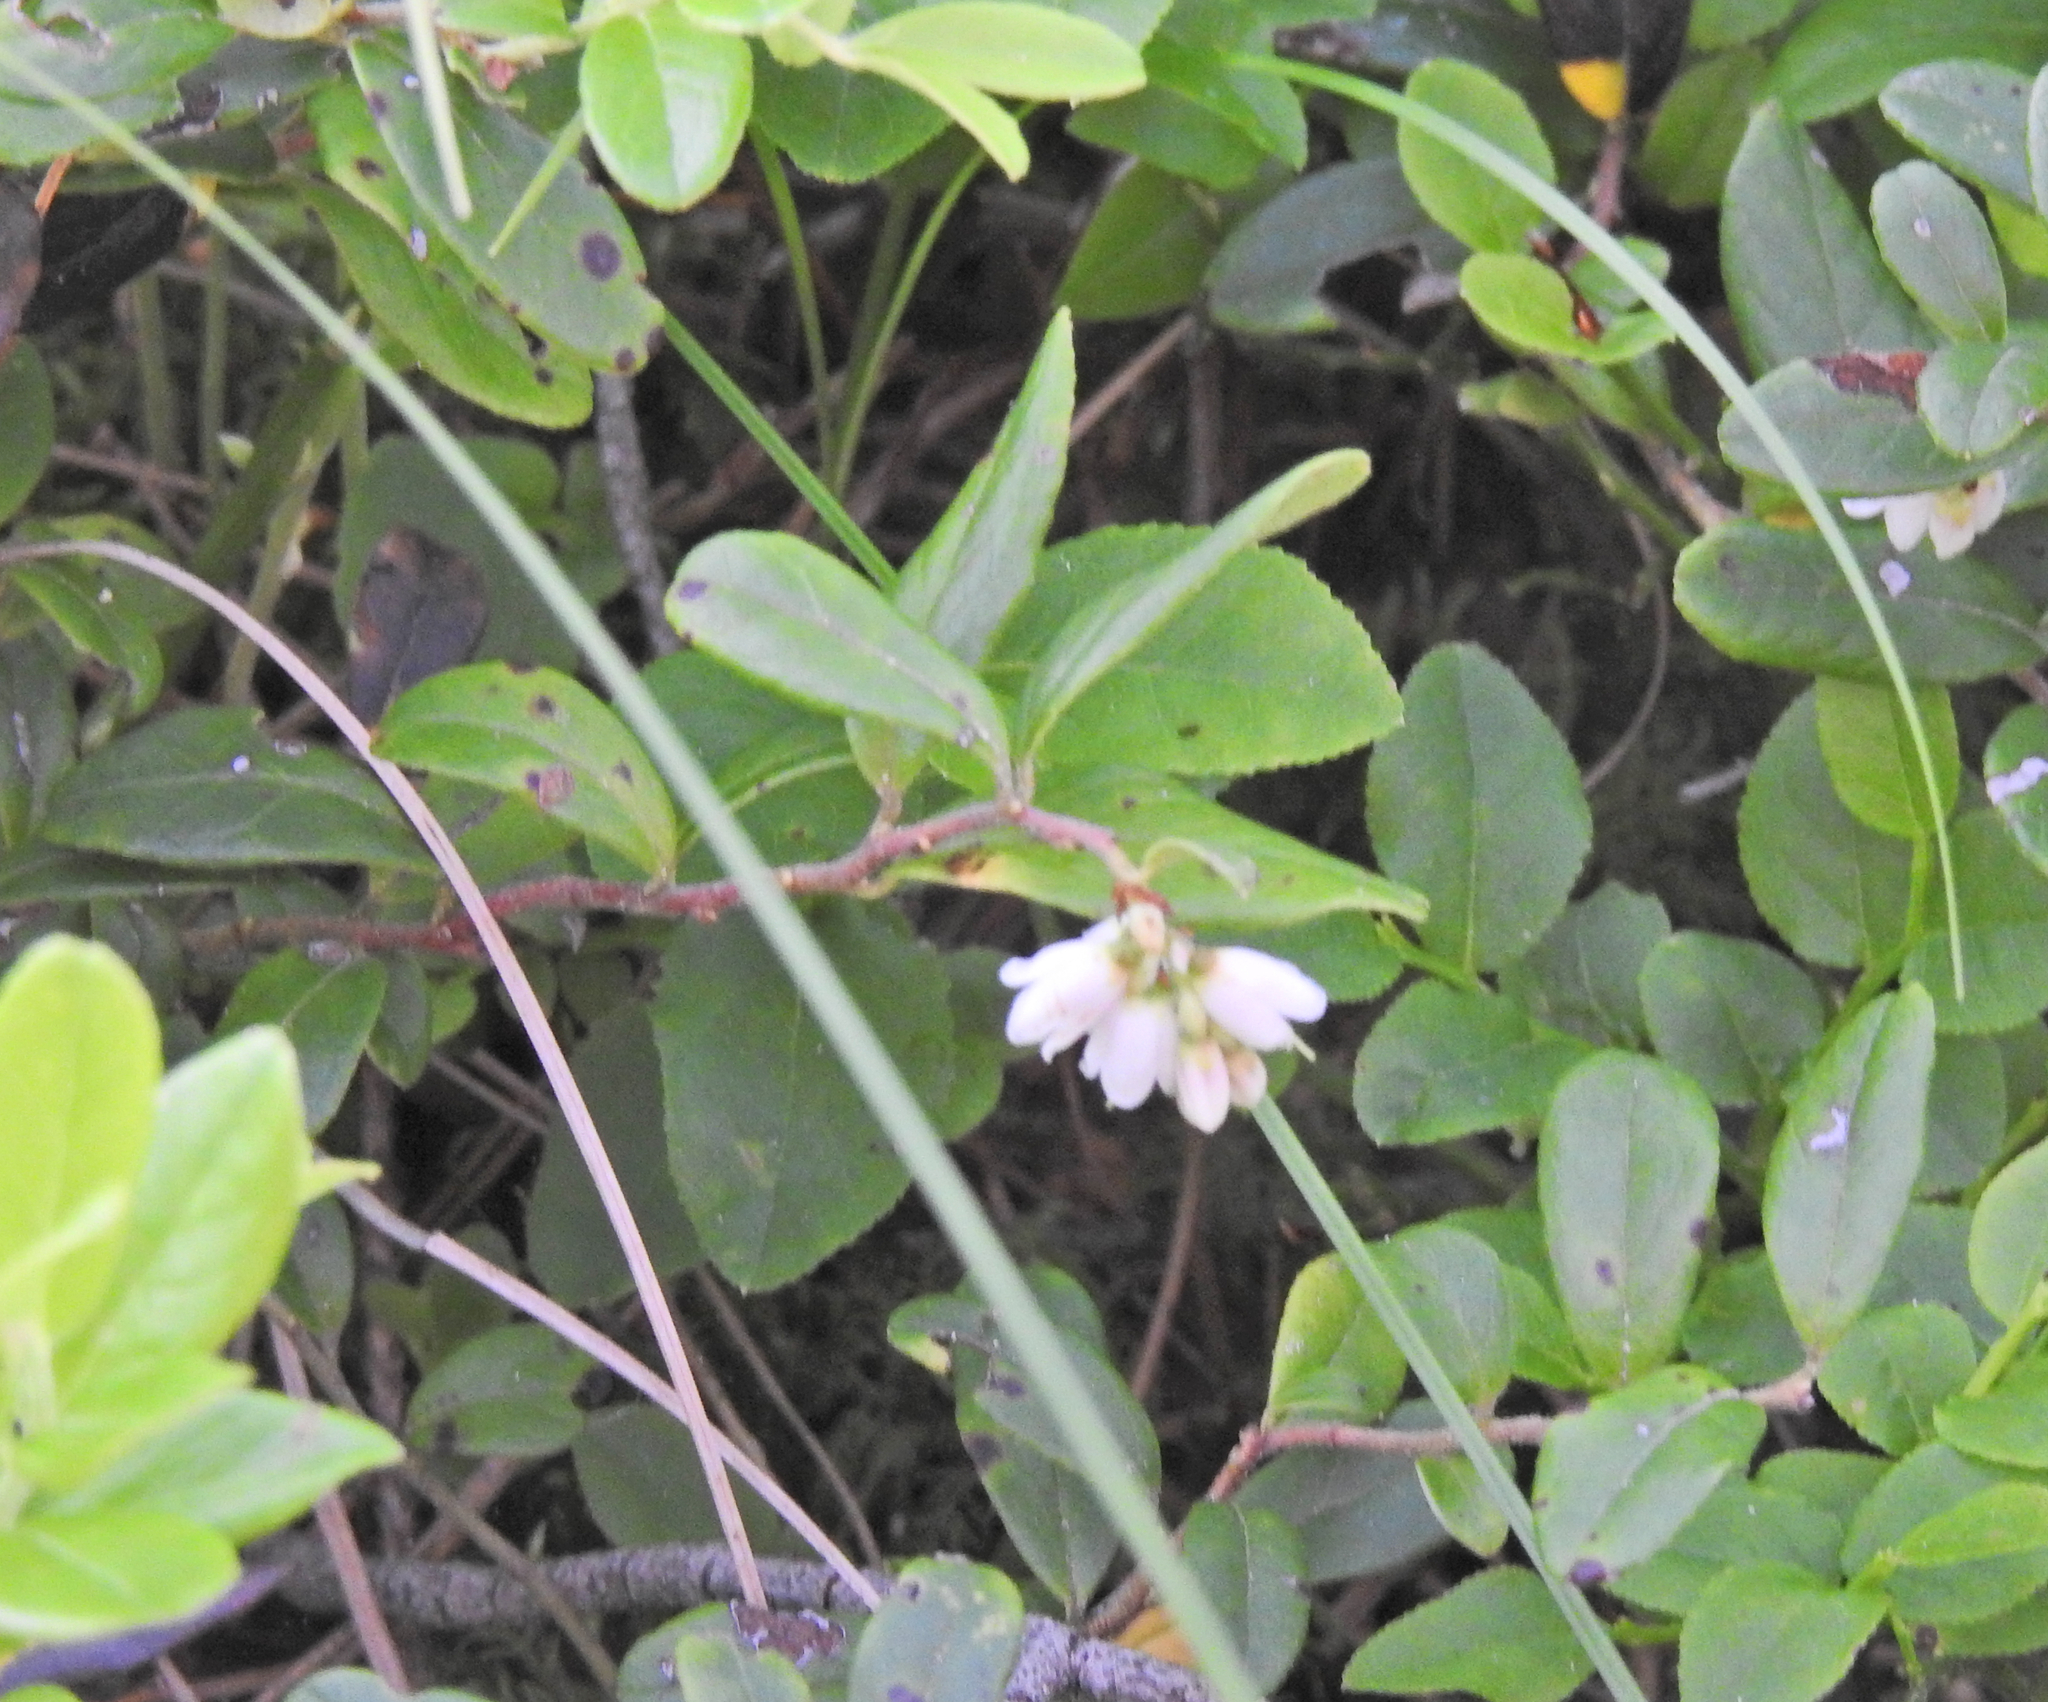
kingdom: Plantae
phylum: Tracheophyta
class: Magnoliopsida
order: Ericales
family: Ericaceae
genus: Vaccinium
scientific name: Vaccinium vitis-idaea
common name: Cowberry
